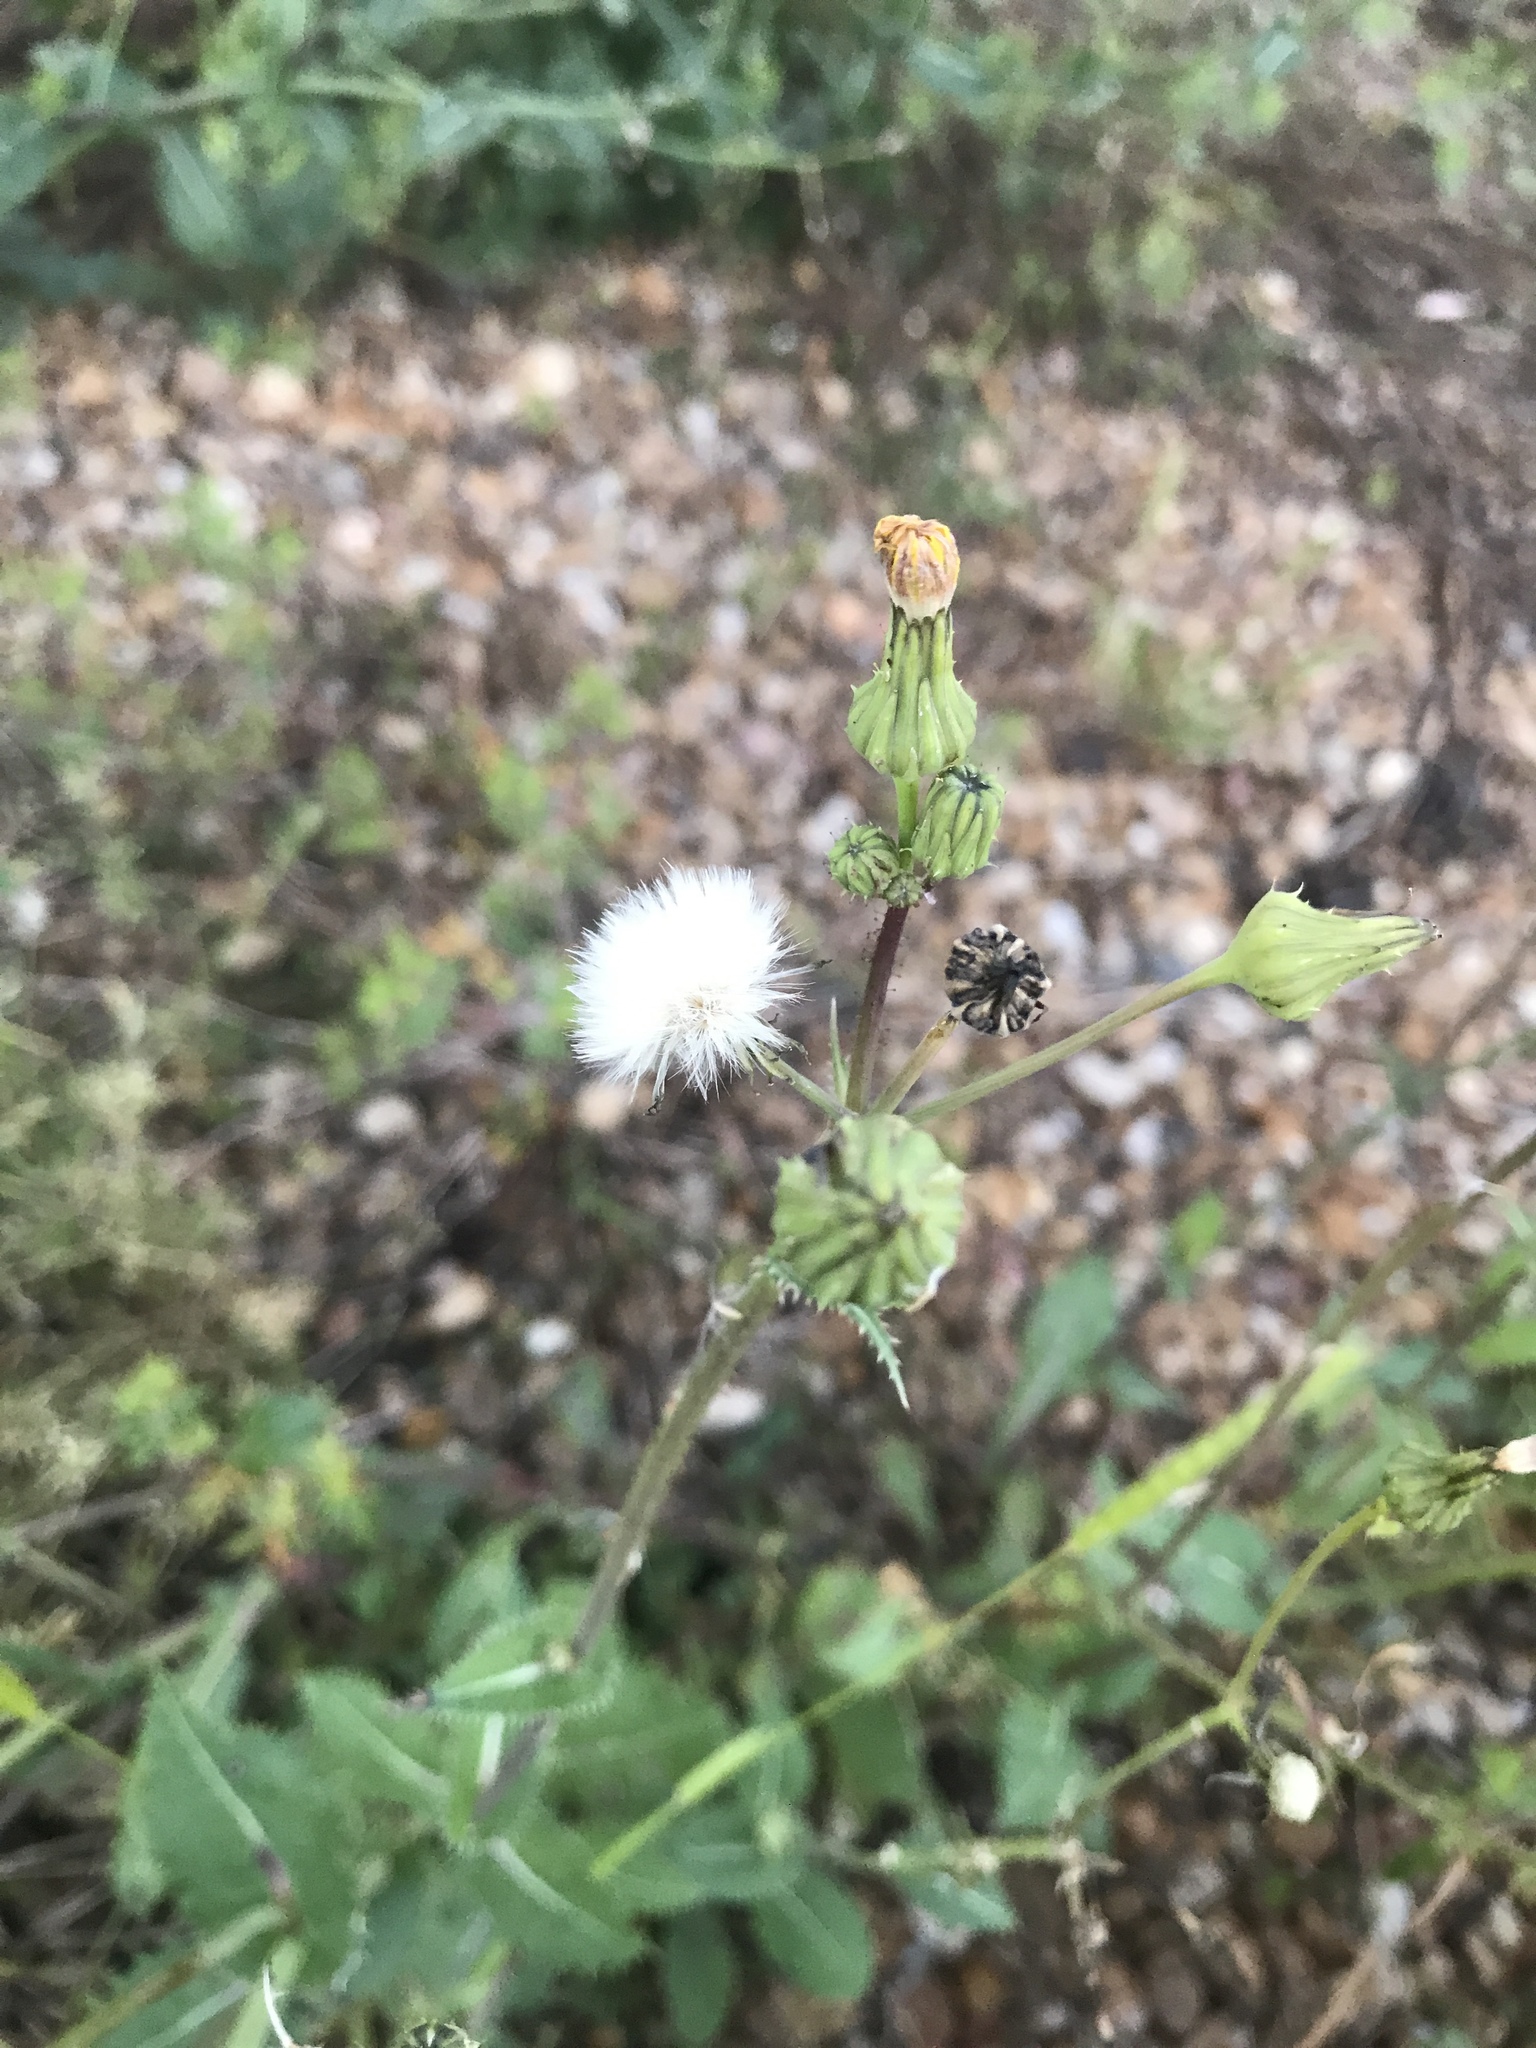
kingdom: Plantae
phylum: Tracheophyta
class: Magnoliopsida
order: Asterales
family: Asteraceae
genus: Sonchus
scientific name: Sonchus asper
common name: Prickly sow-thistle
